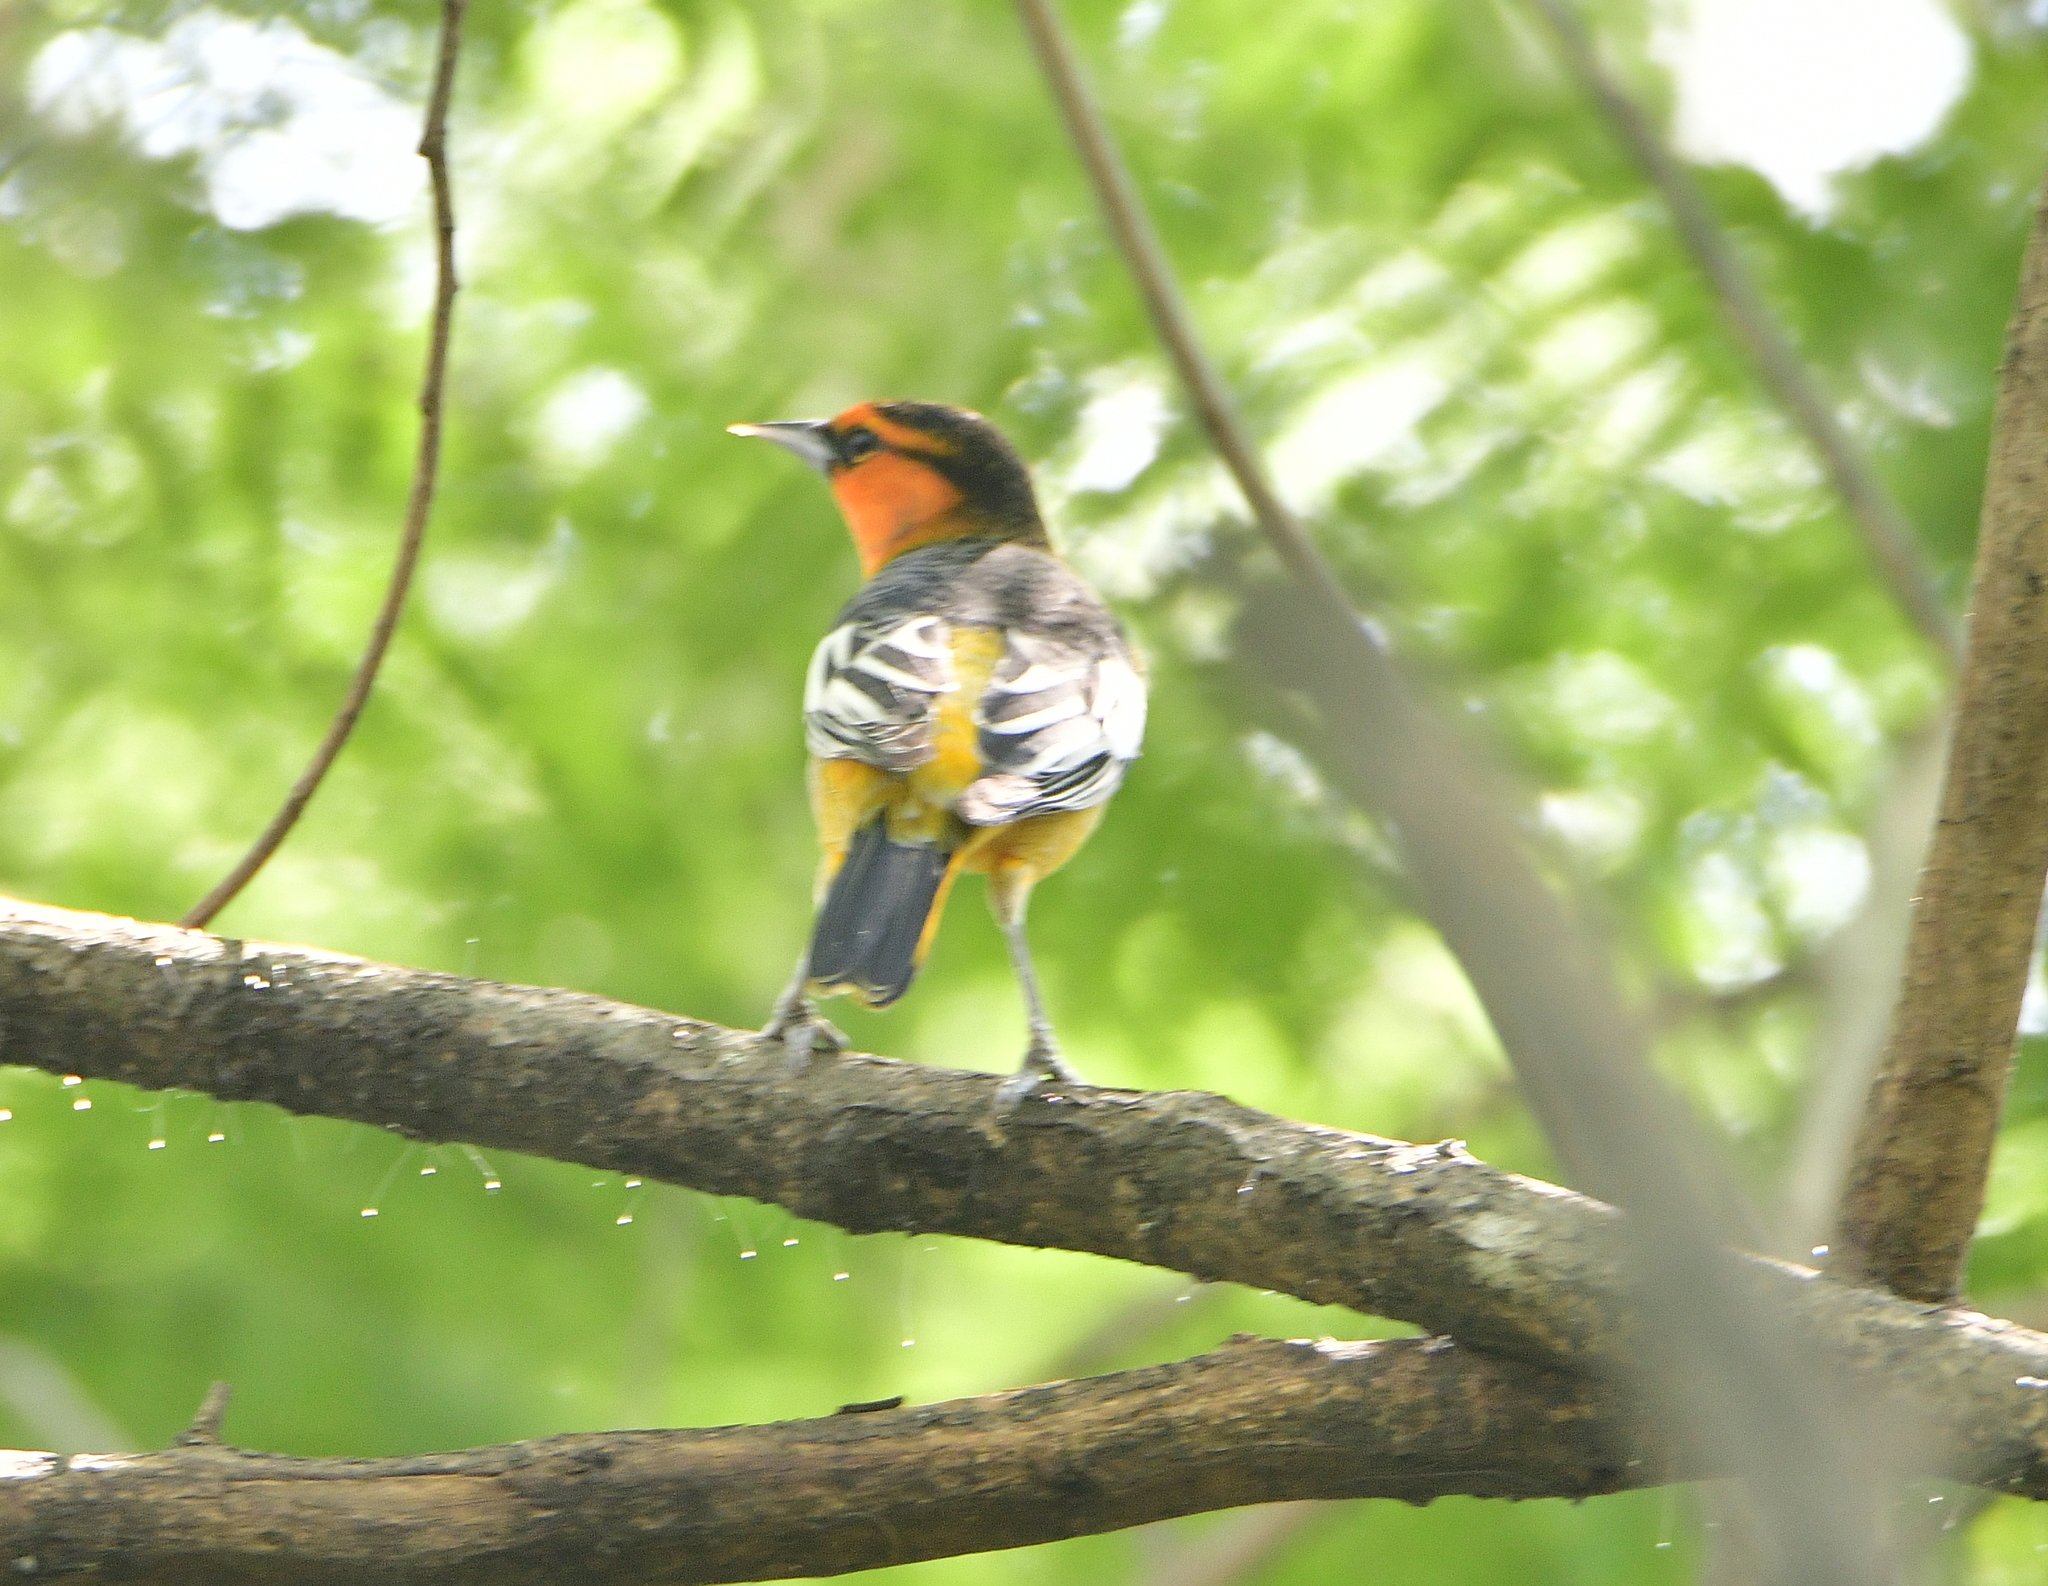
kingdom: Animalia
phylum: Chordata
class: Aves
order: Passeriformes
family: Icteridae
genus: Icterus
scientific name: Icterus bullockii
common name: Bullock's oriole
